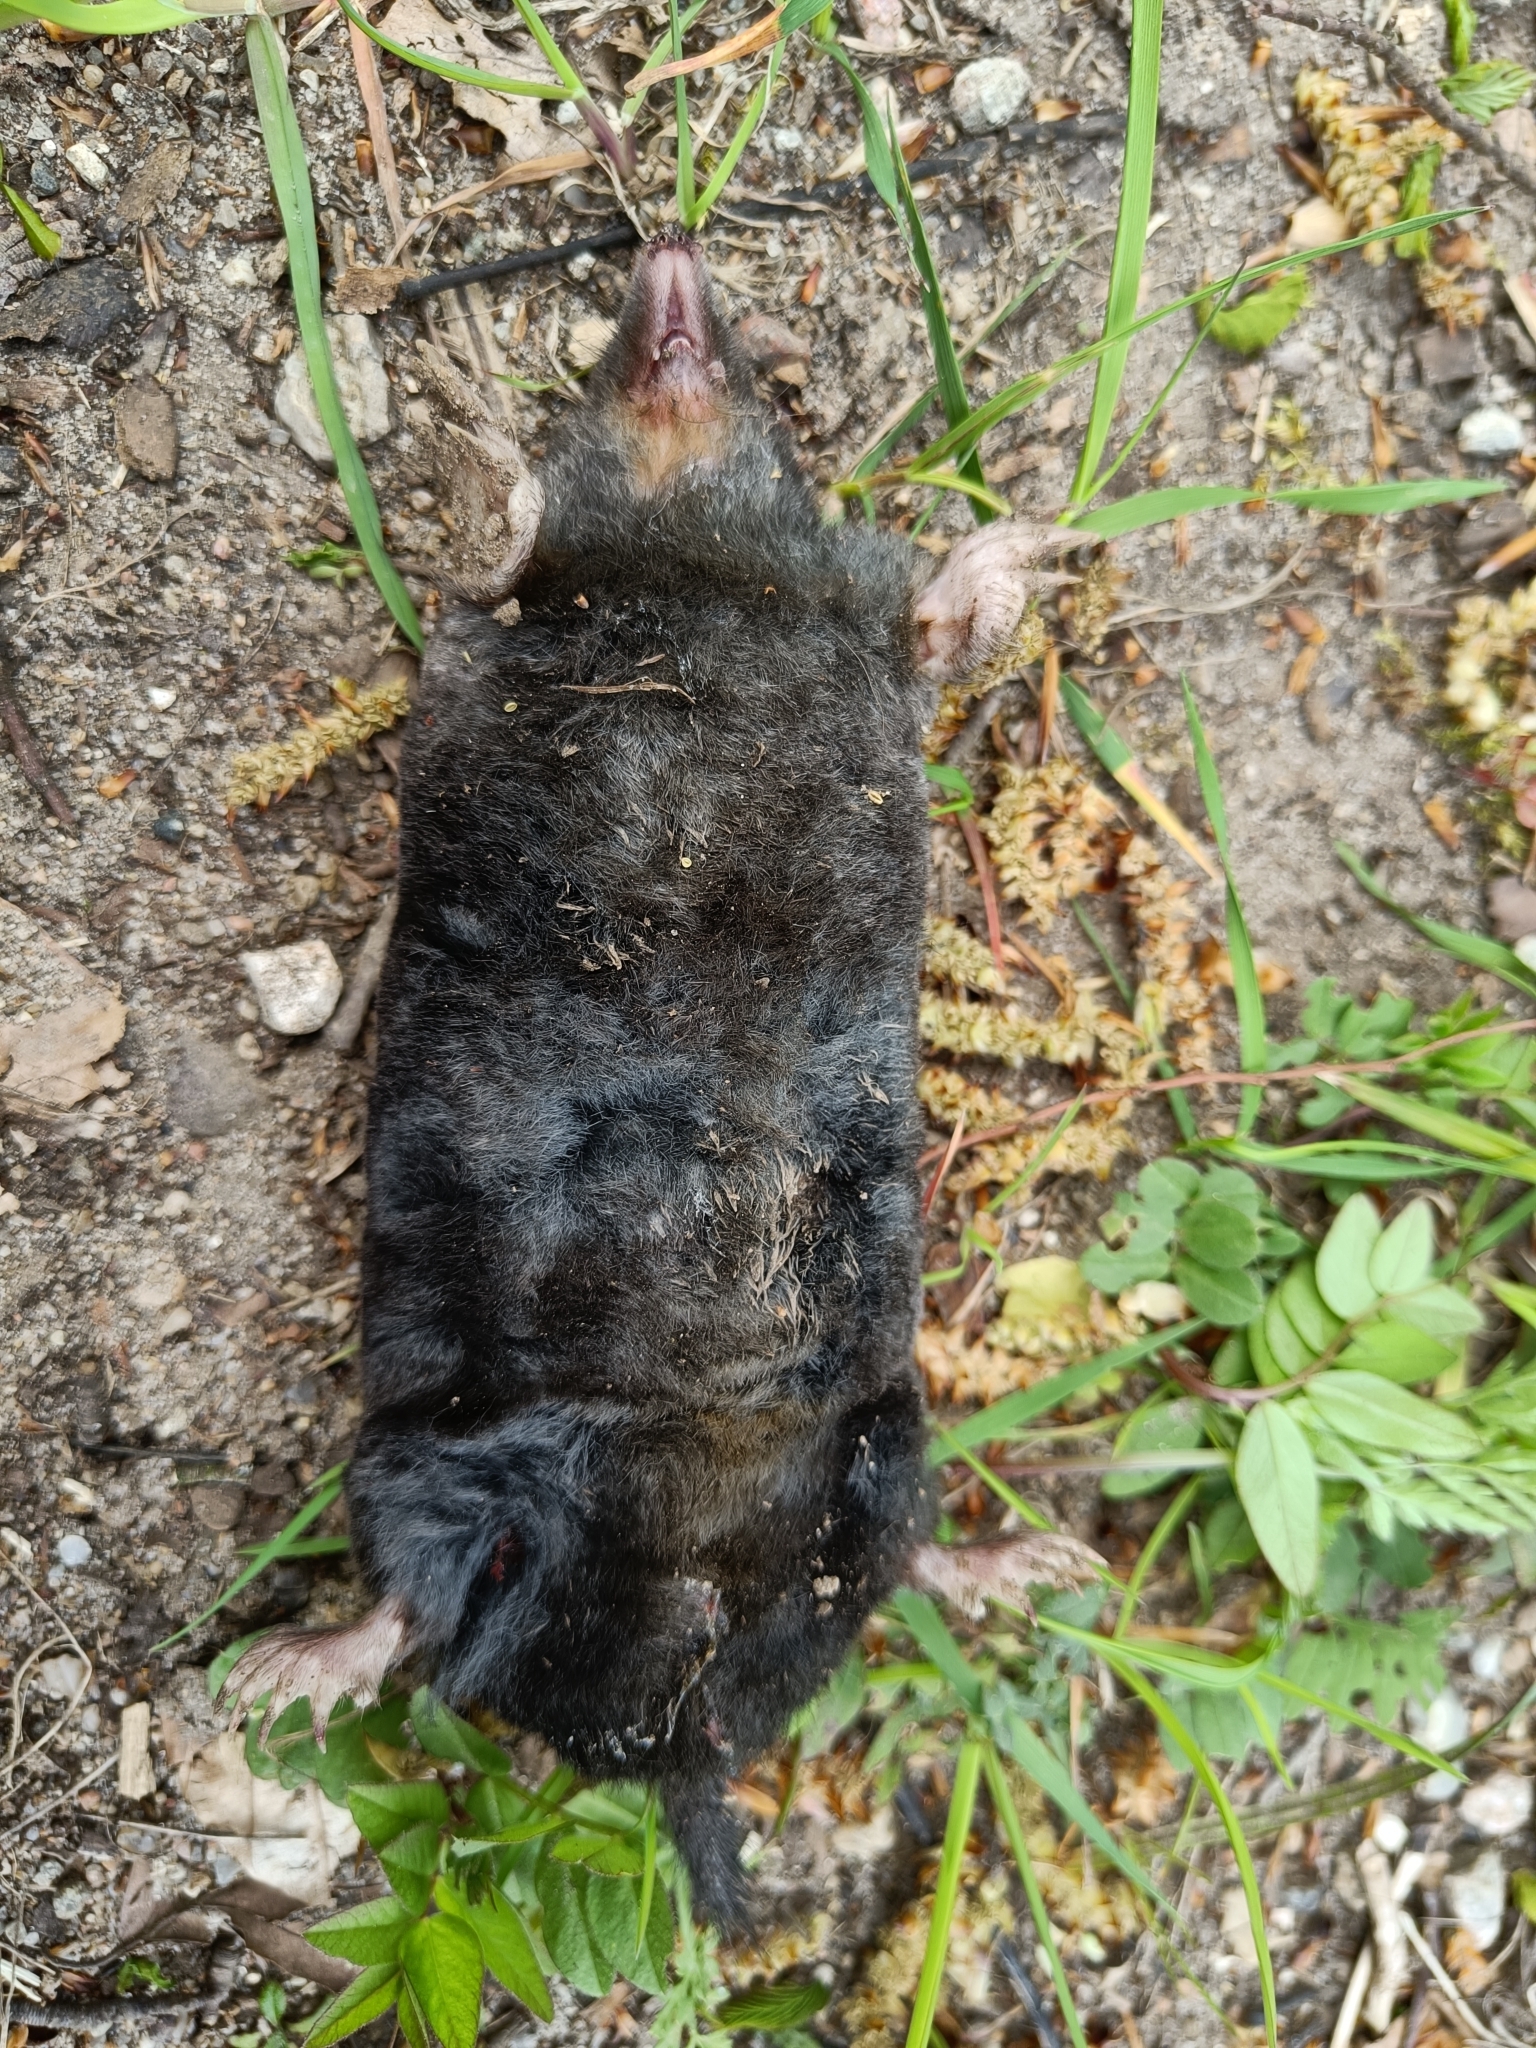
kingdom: Animalia
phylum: Chordata
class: Mammalia
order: Soricomorpha
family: Talpidae
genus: Talpa
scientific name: Talpa europaea
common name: European mole
